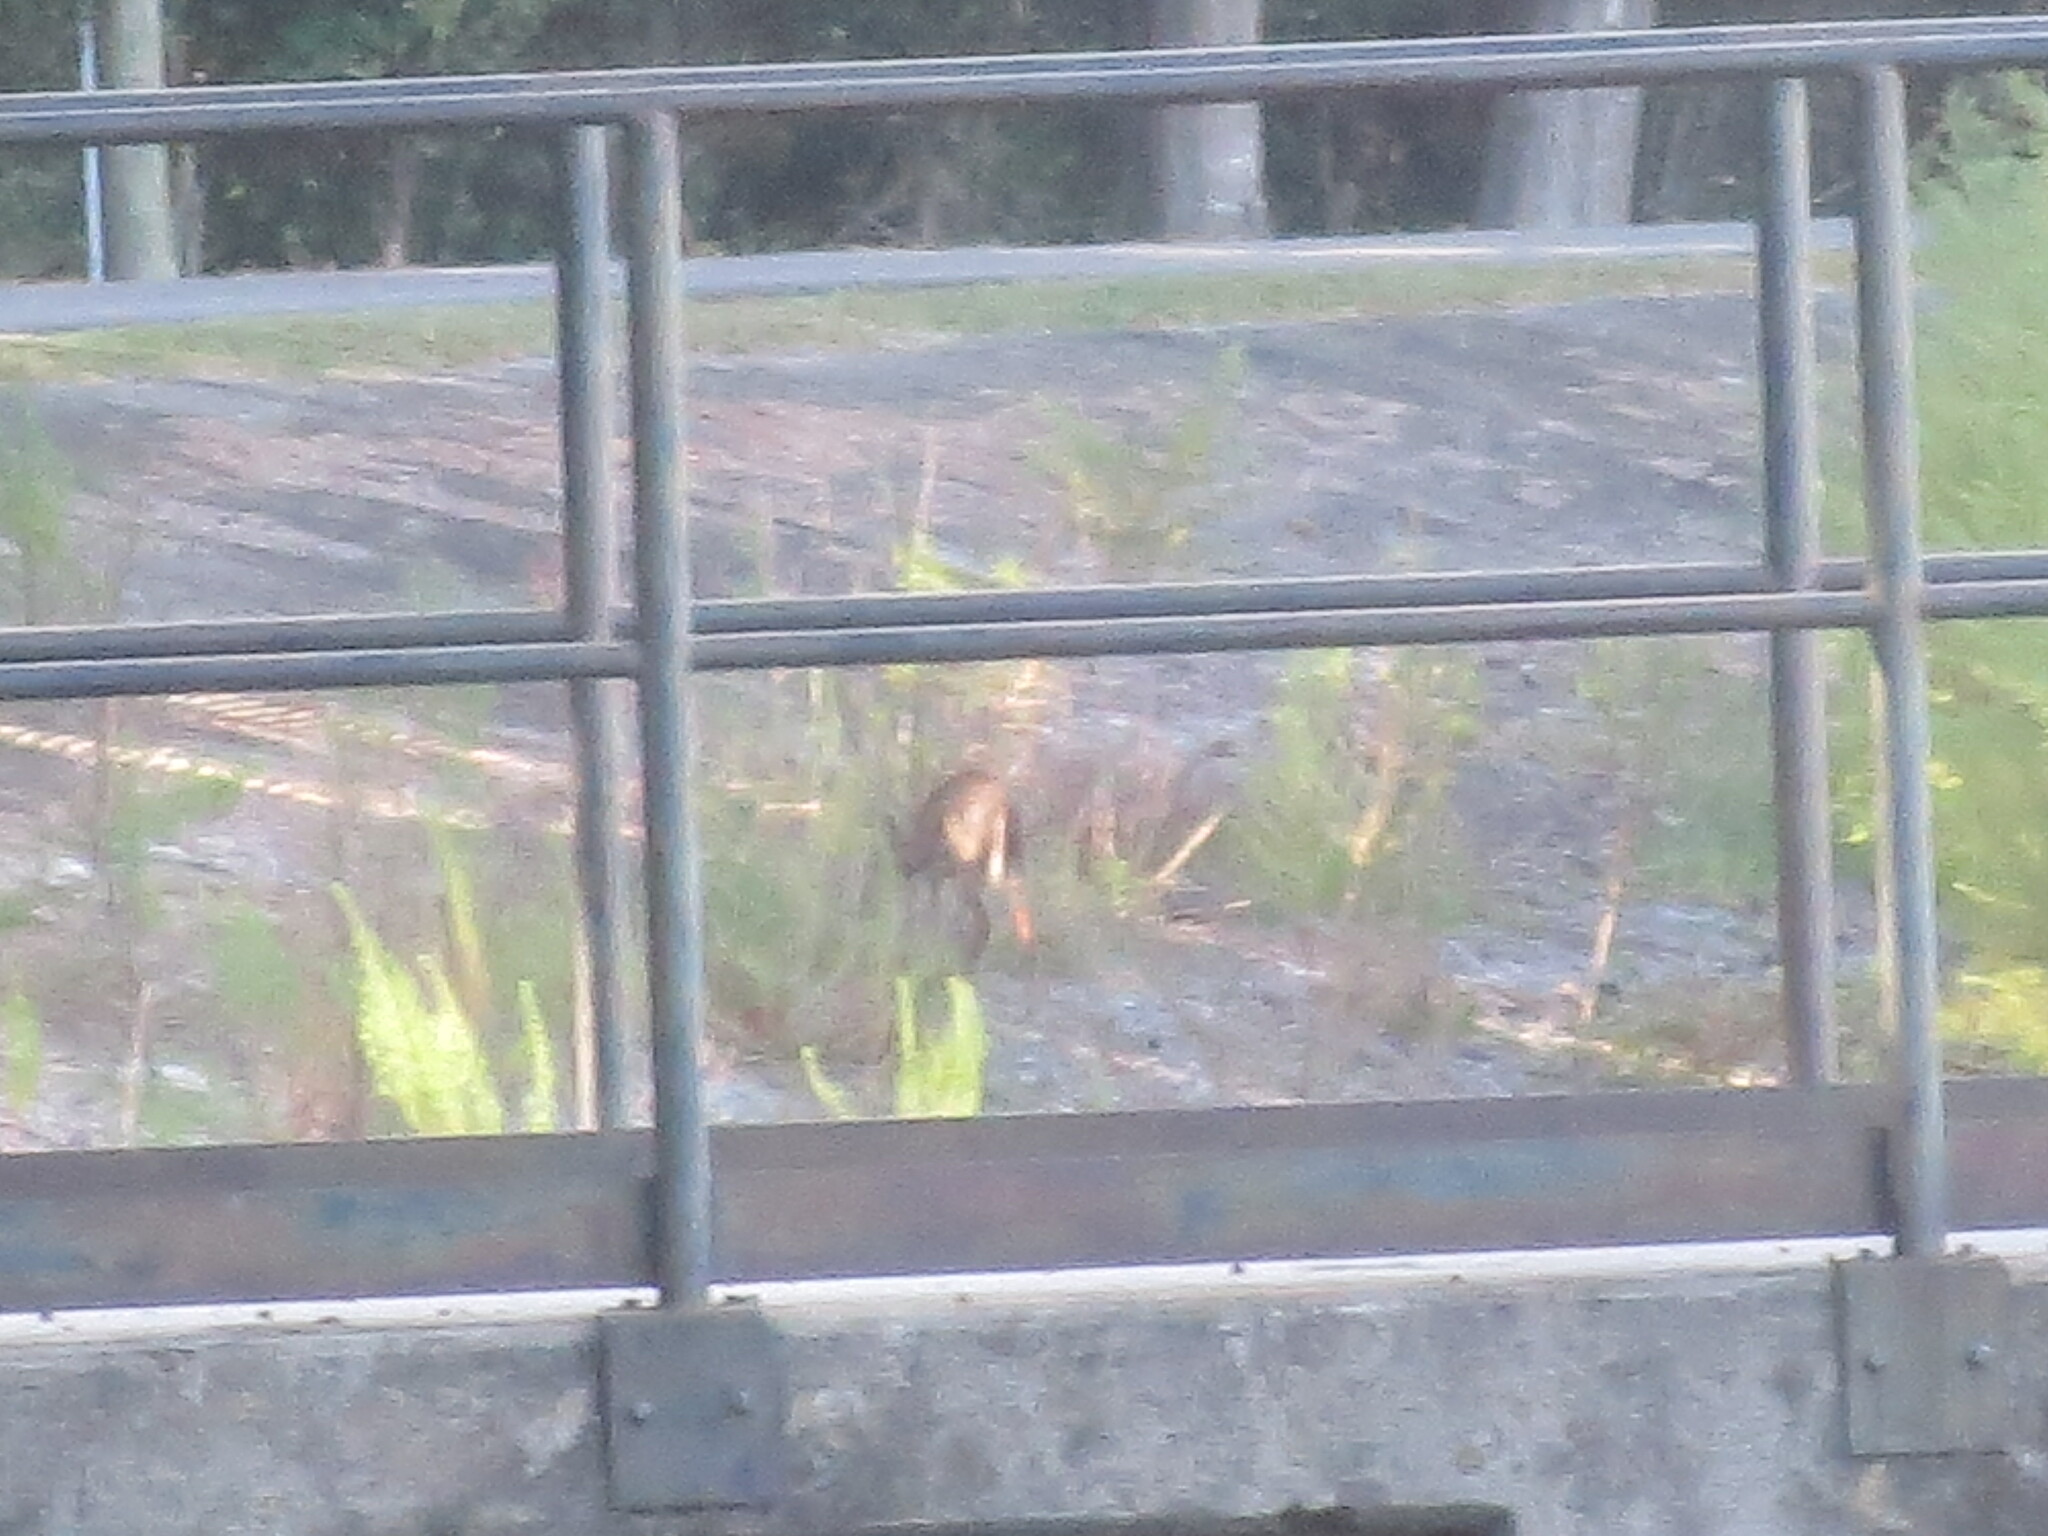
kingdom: Animalia
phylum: Chordata
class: Mammalia
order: Artiodactyla
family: Cervidae
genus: Odocoileus
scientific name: Odocoileus virginianus
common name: White-tailed deer
